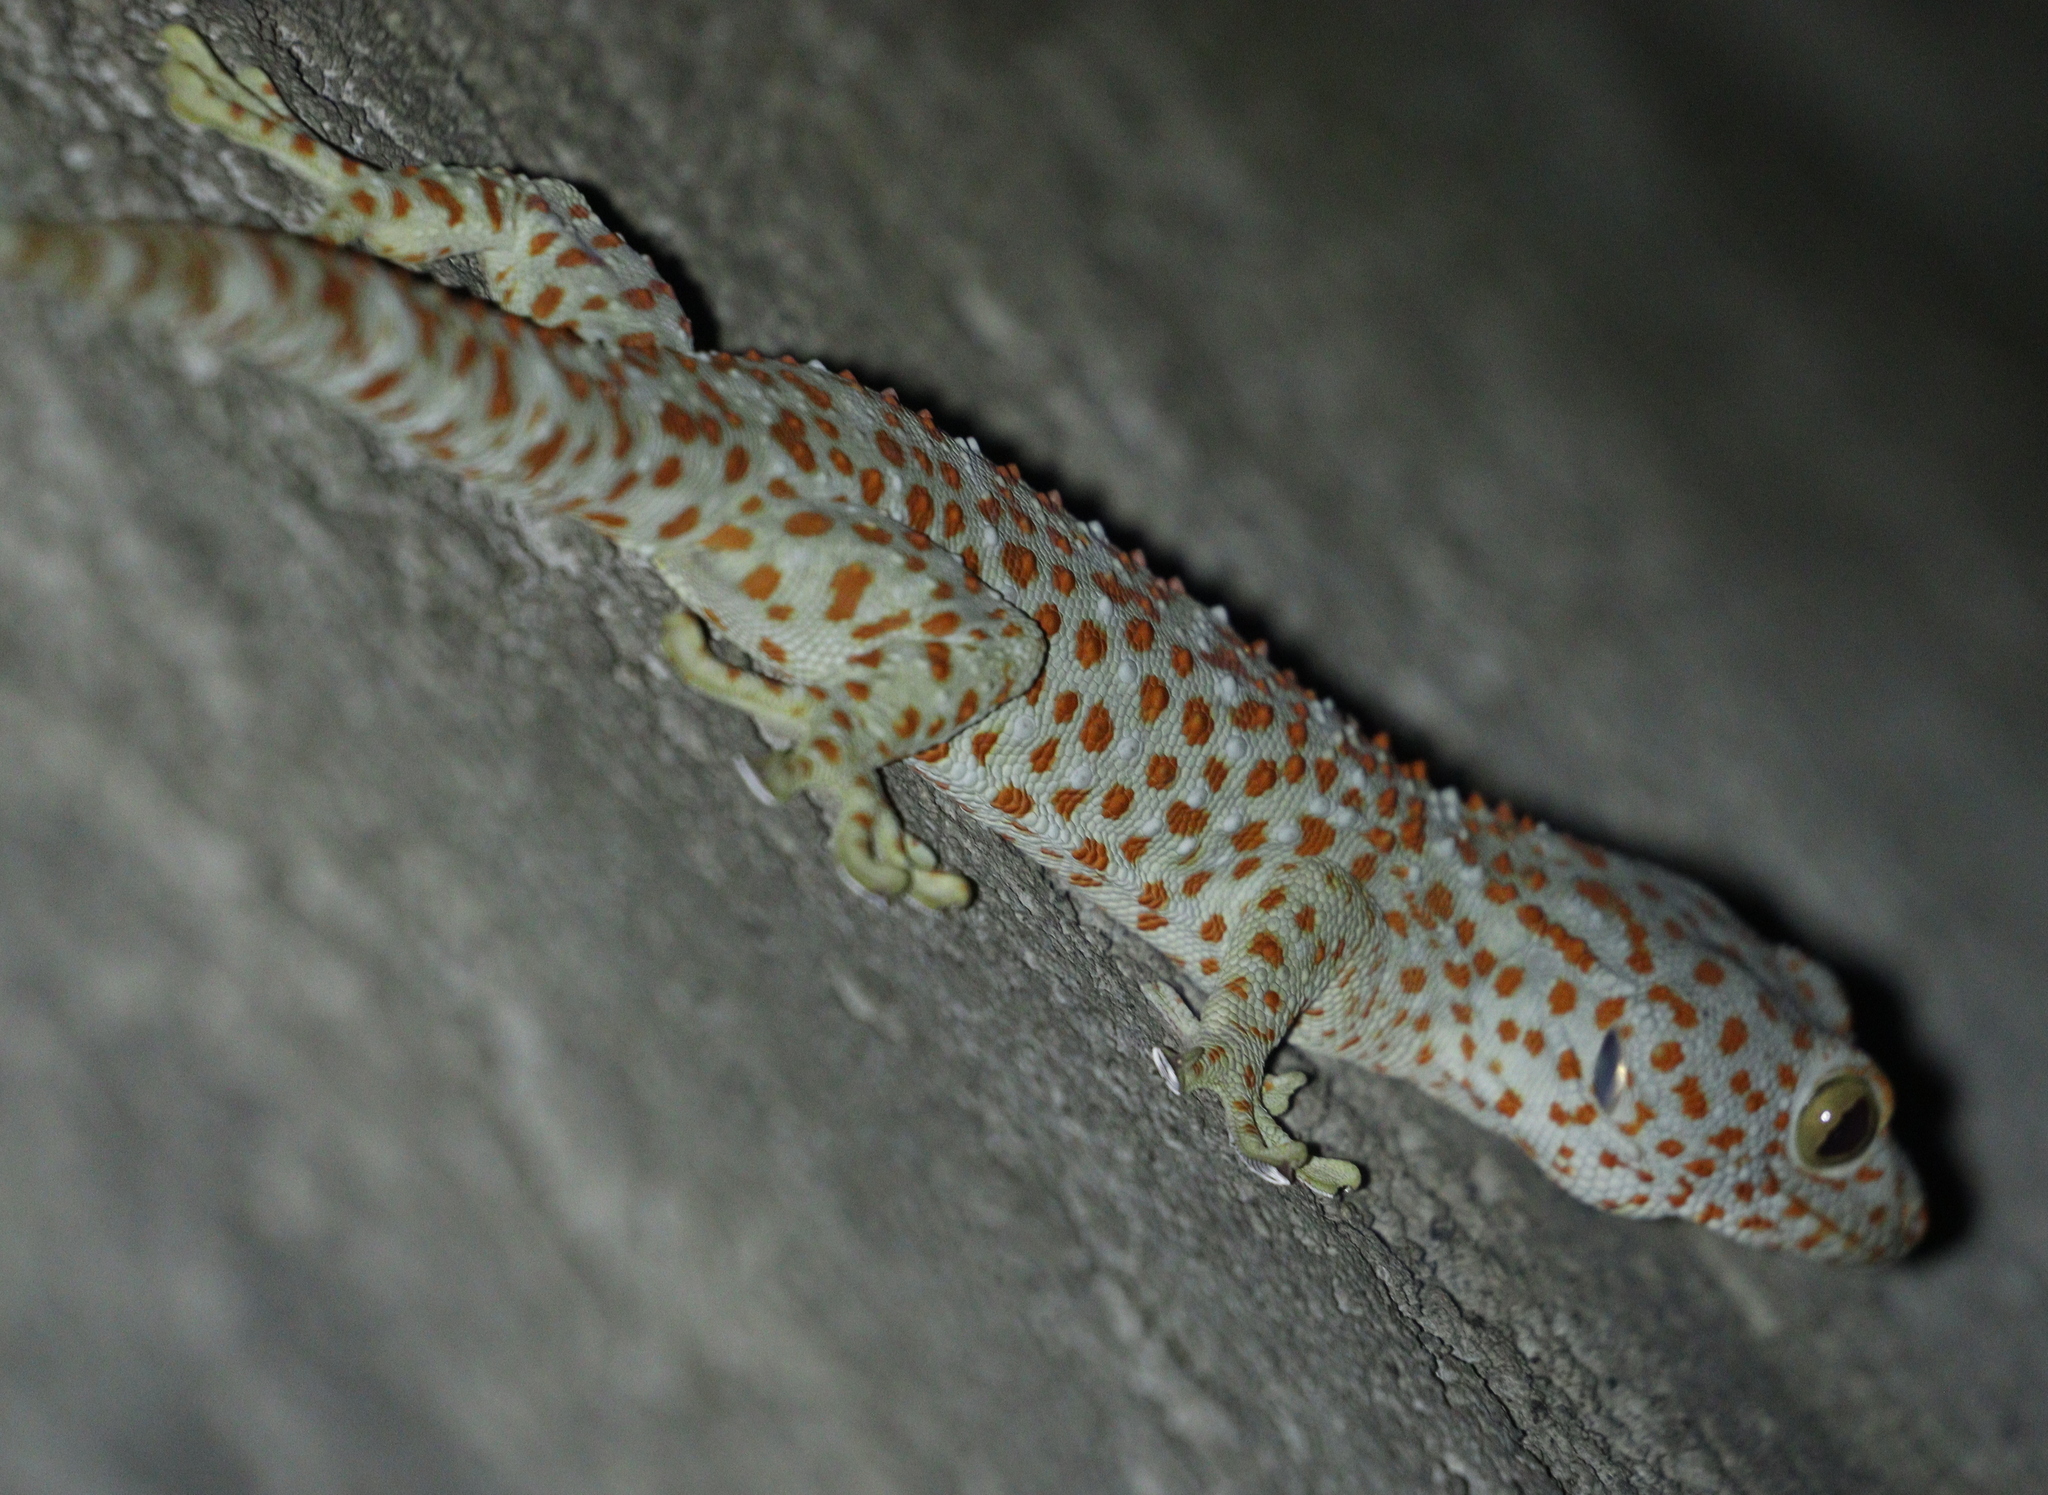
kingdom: Animalia
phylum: Chordata
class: Squamata
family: Gekkonidae
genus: Gekko
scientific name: Gekko gecko
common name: Tokay gecko
